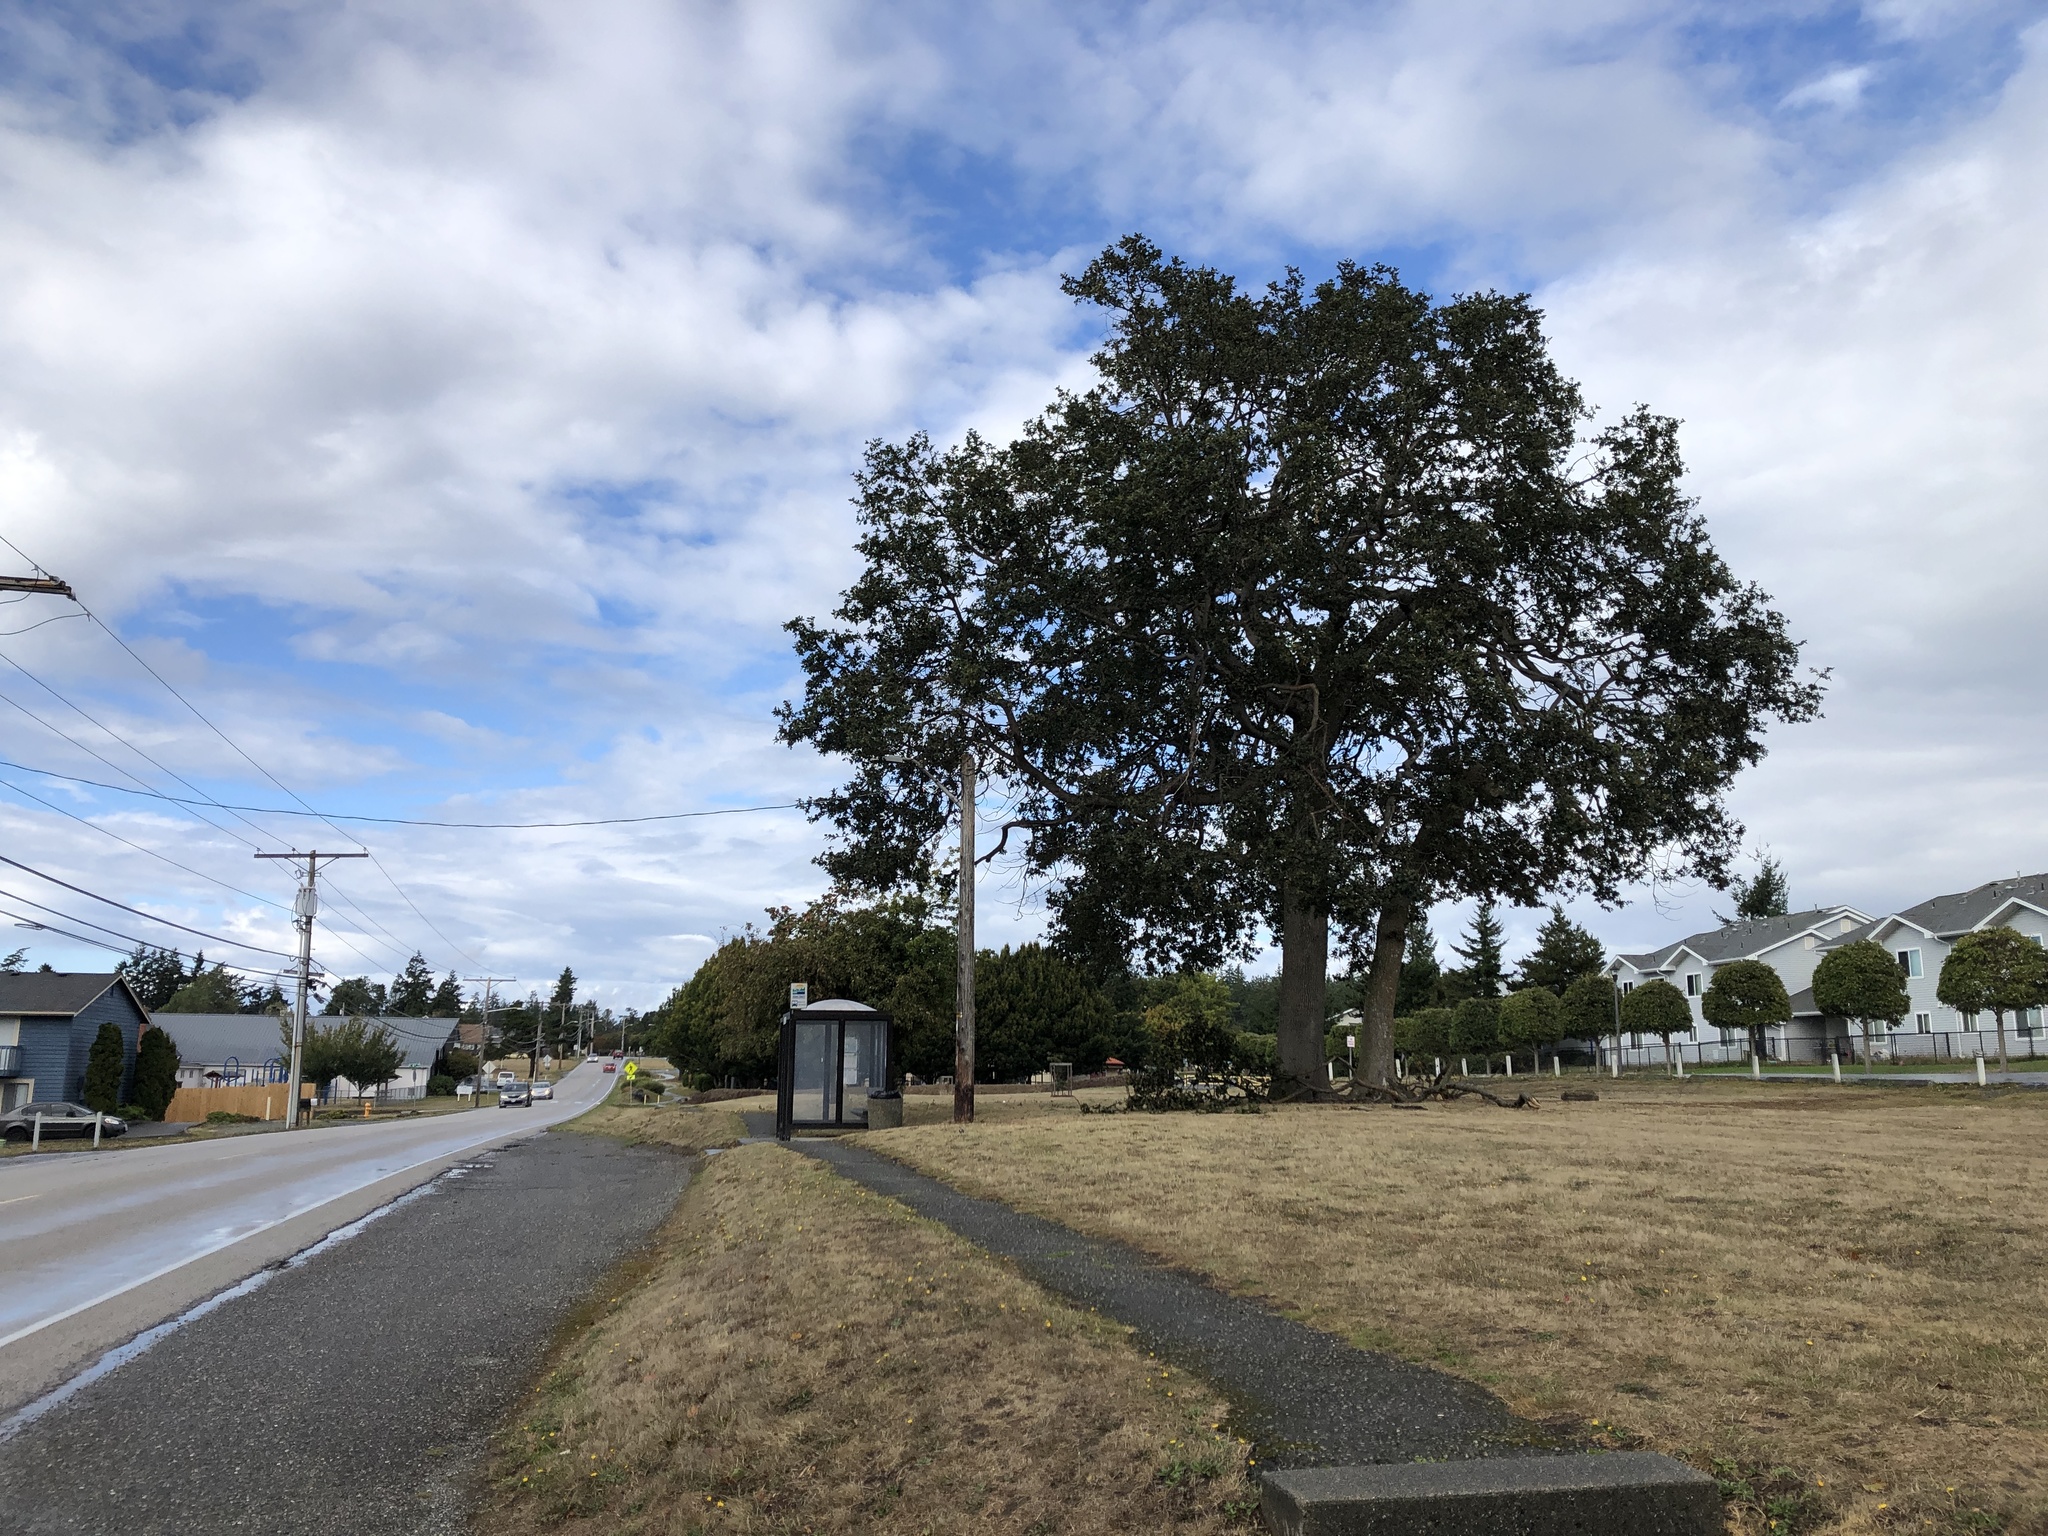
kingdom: Plantae
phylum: Tracheophyta
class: Magnoliopsida
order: Fagales
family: Fagaceae
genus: Quercus
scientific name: Quercus garryana
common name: Garry oak
